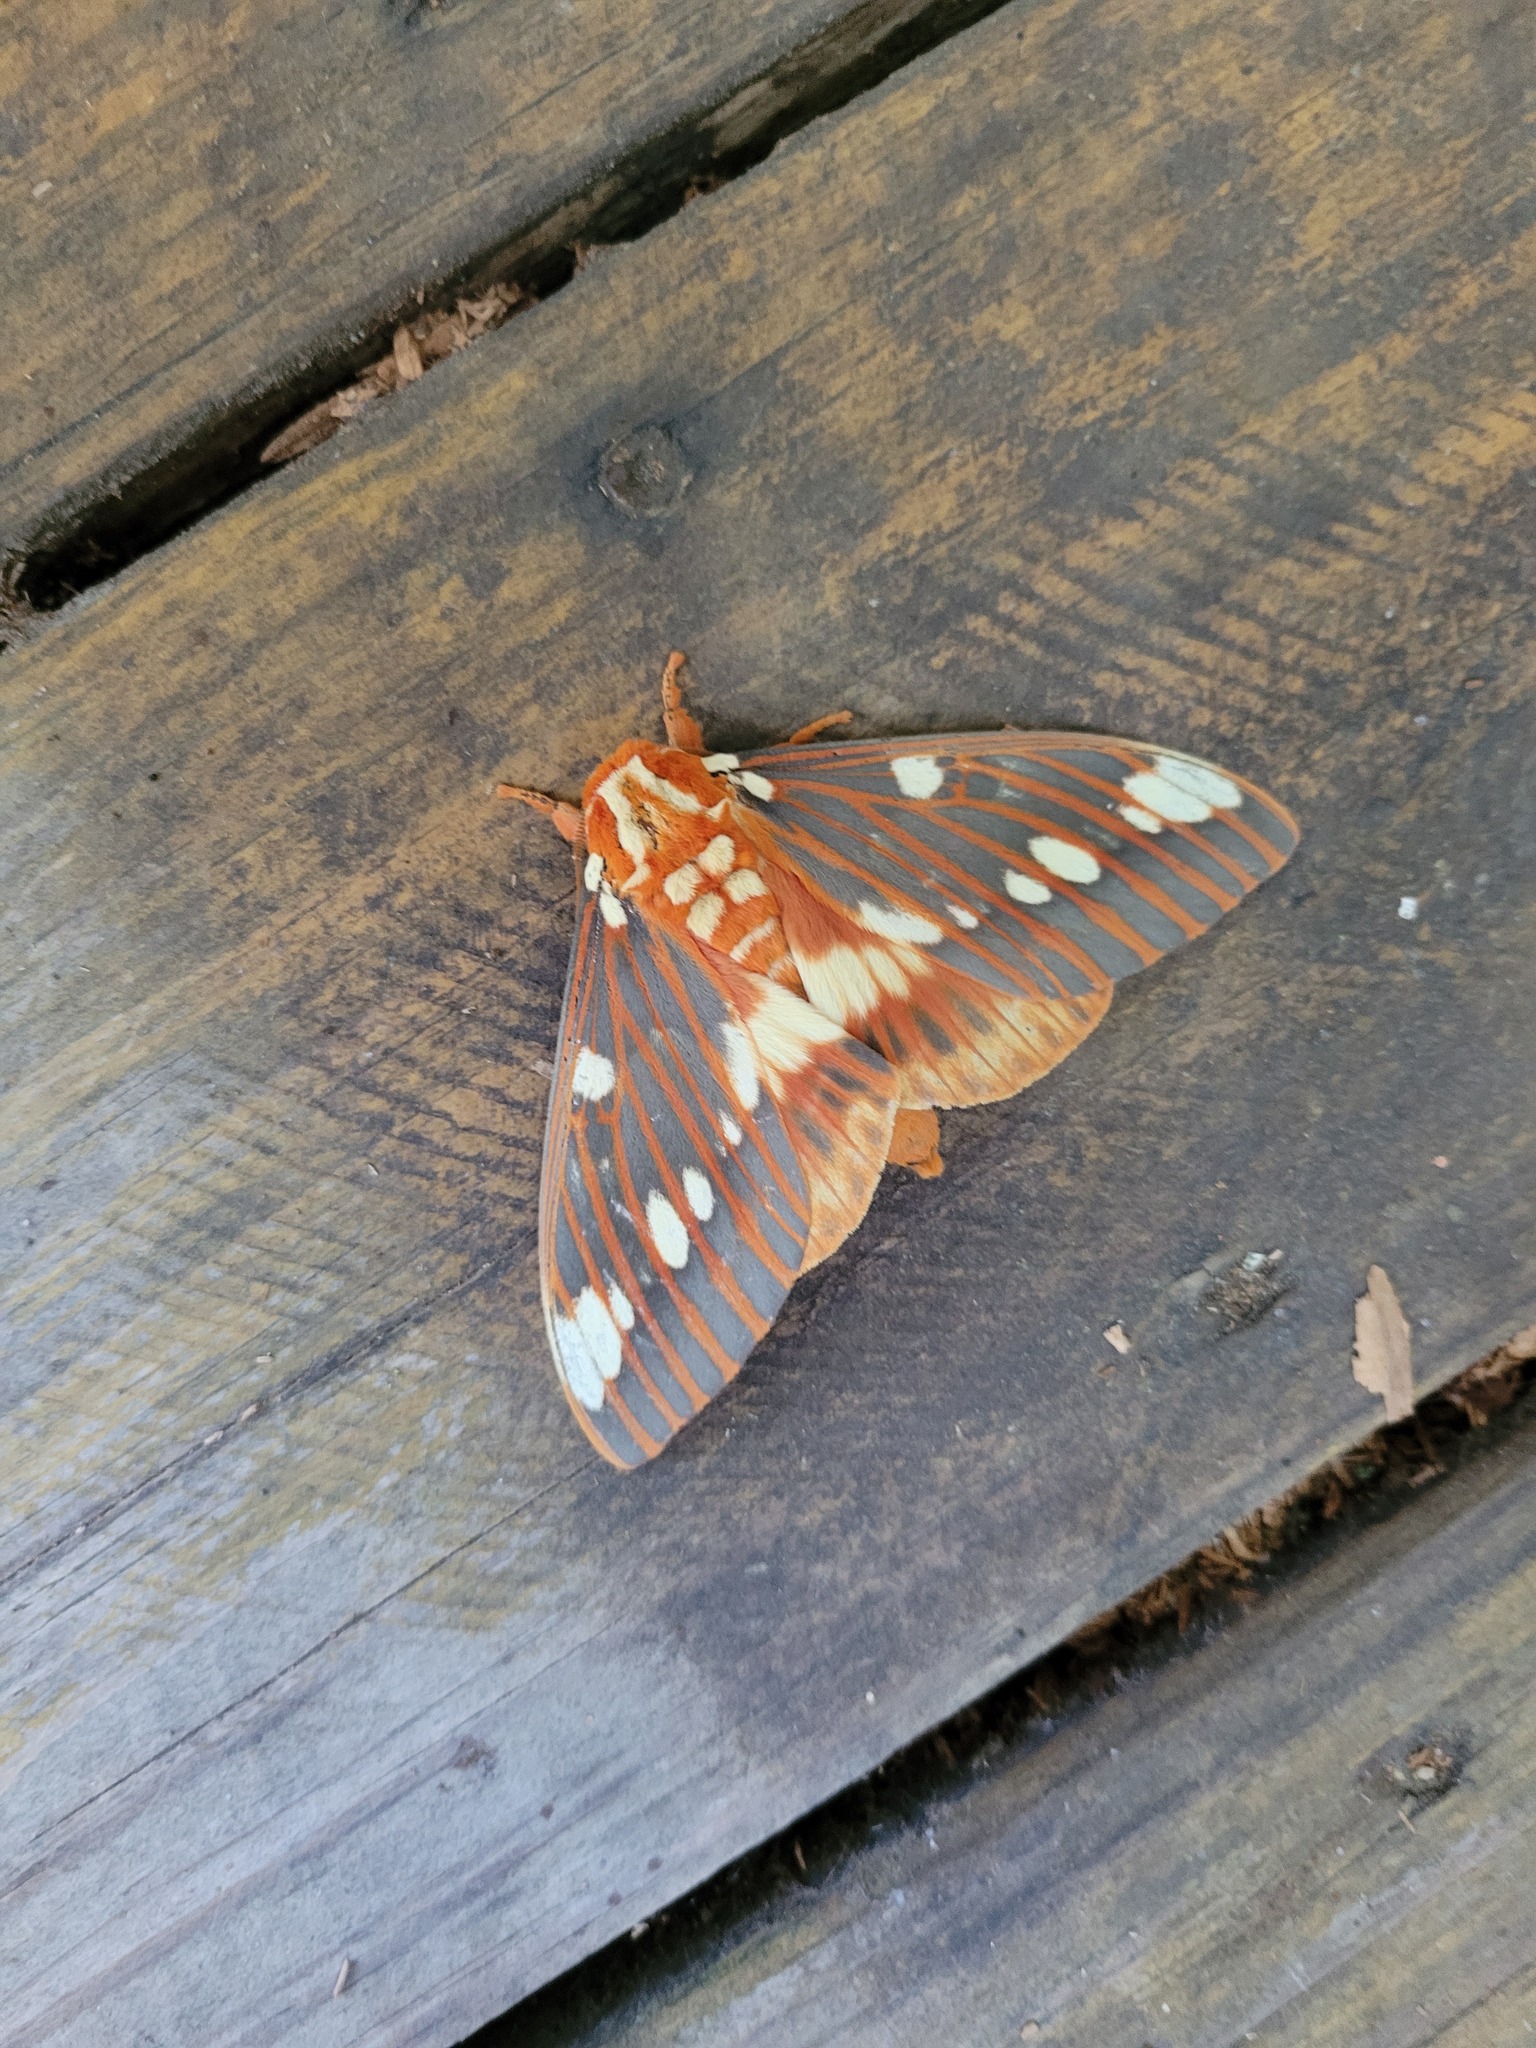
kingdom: Animalia
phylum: Arthropoda
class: Insecta
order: Lepidoptera
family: Saturniidae
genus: Citheronia
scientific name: Citheronia regalis
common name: Hickory horned devil
